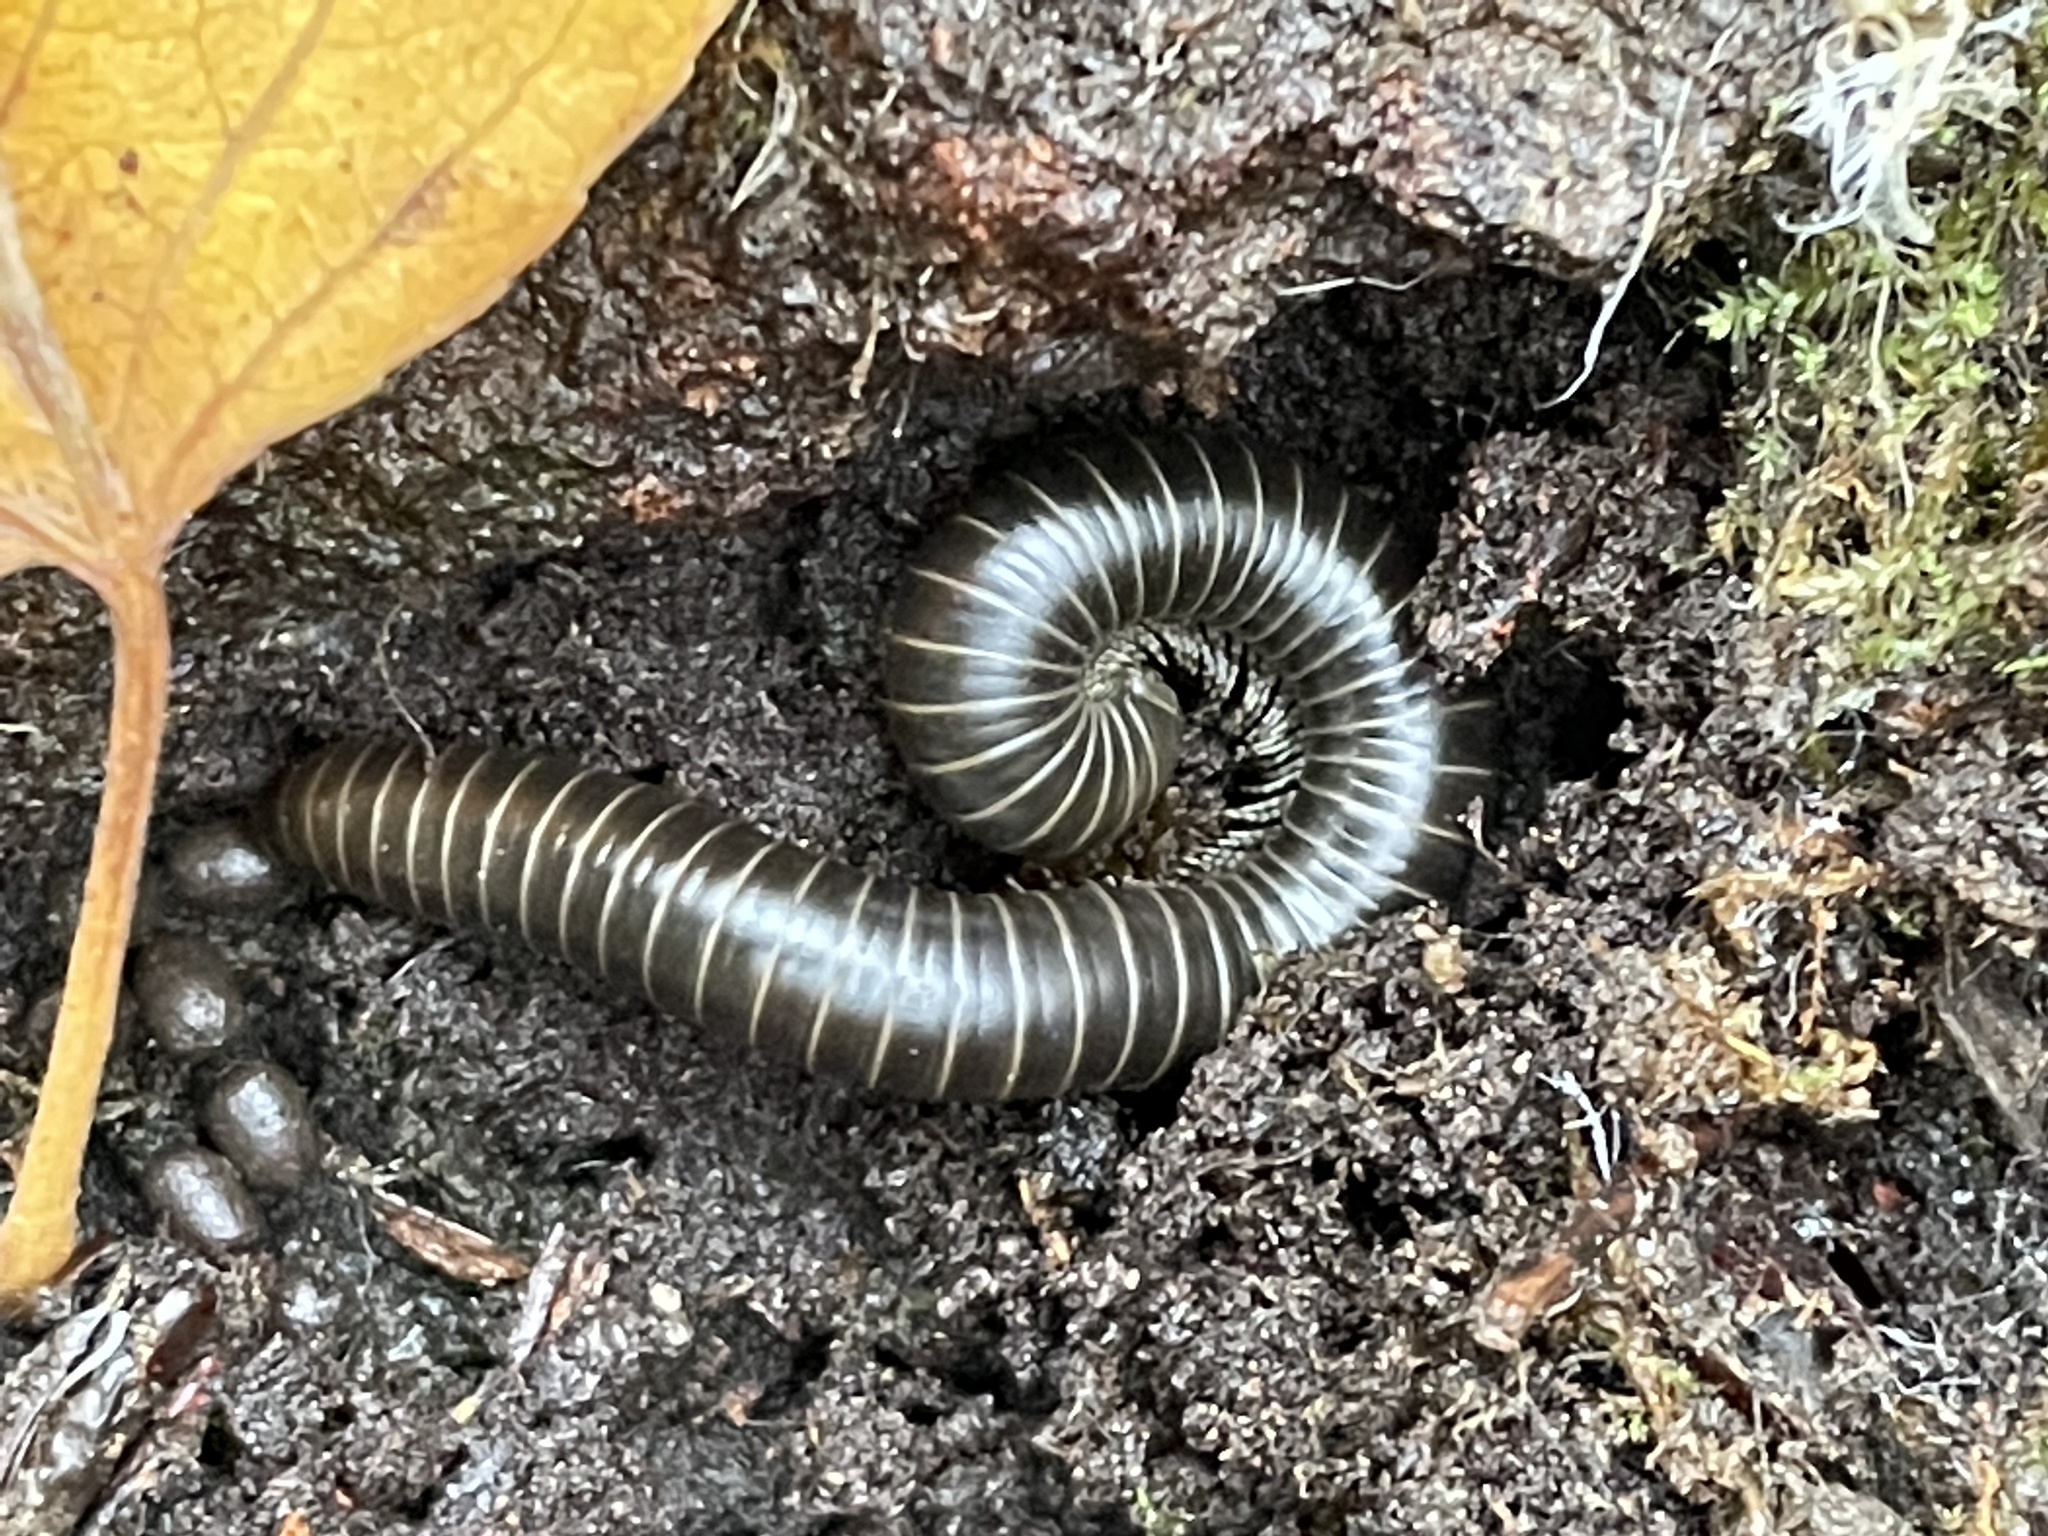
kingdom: Animalia
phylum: Arthropoda
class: Diplopoda
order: Spirobolida
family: Spirobolidae
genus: Tylobolus
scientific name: Tylobolus uncigerus
